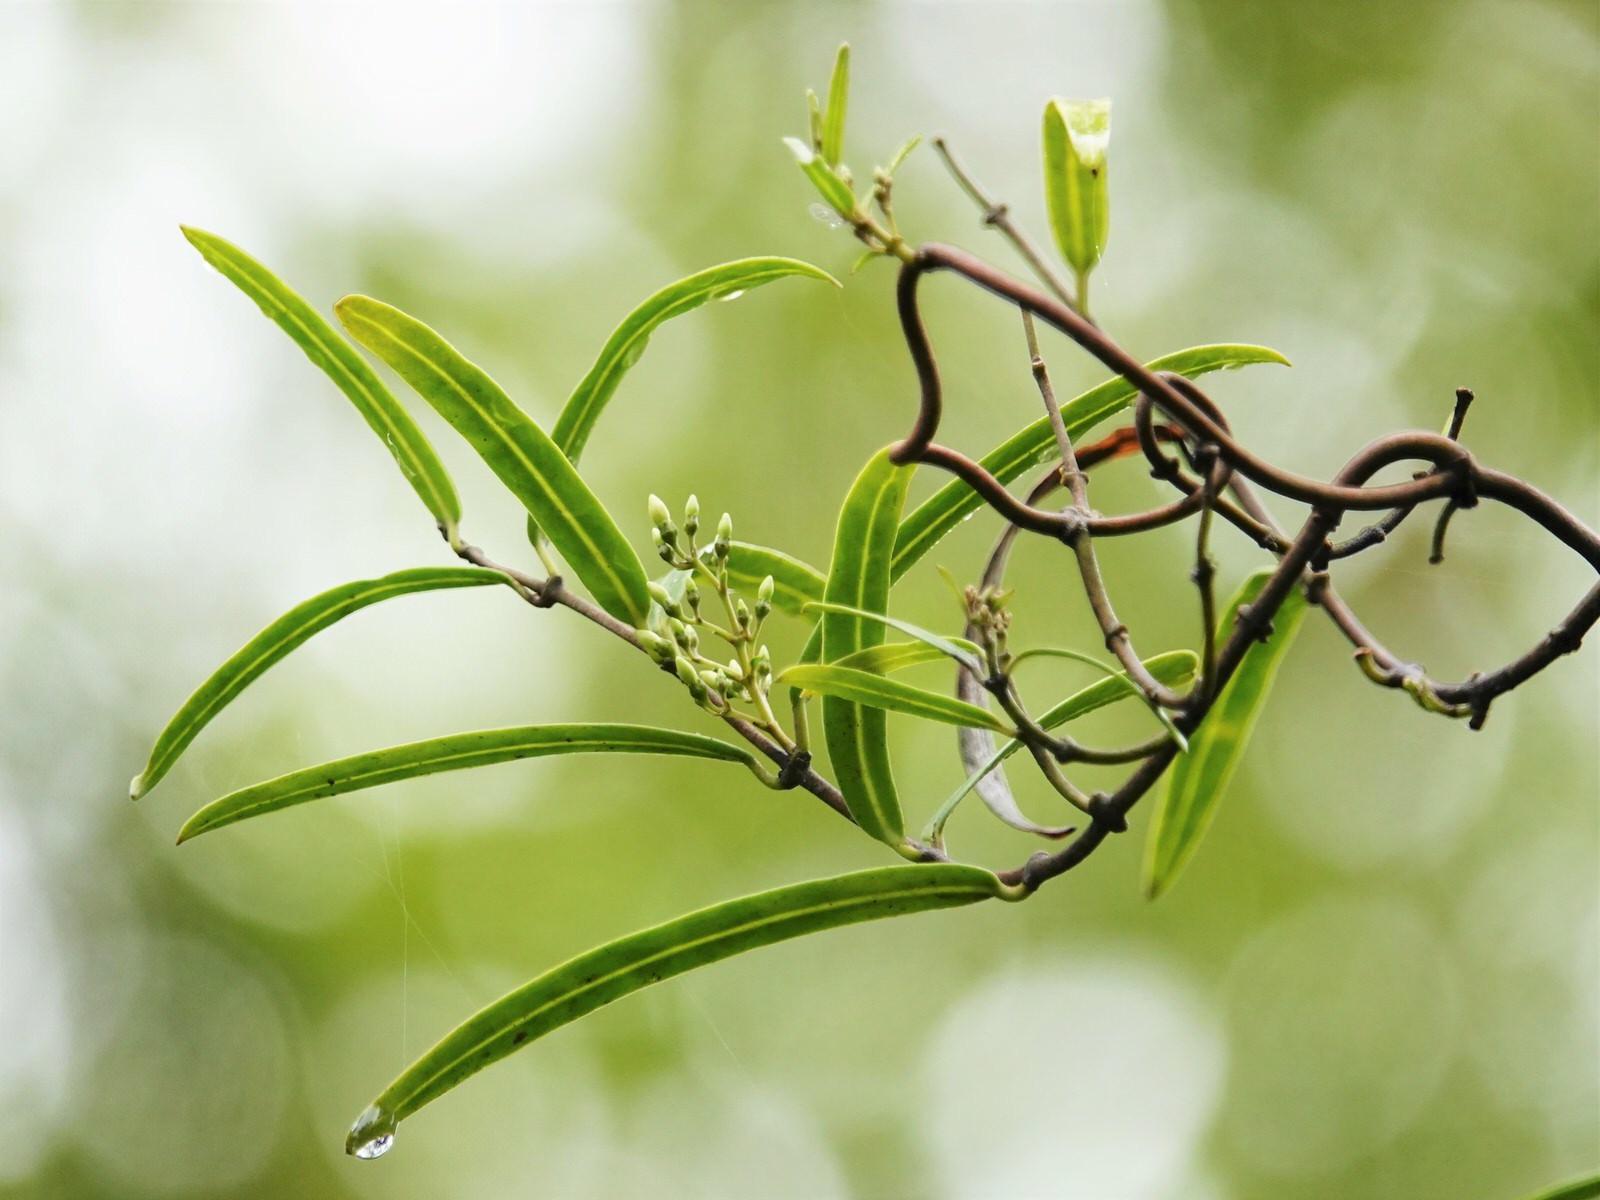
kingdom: Plantae
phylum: Tracheophyta
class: Magnoliopsida
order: Gentianales
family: Apocynaceae
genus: Parsonsia
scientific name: Parsonsia capsularis
